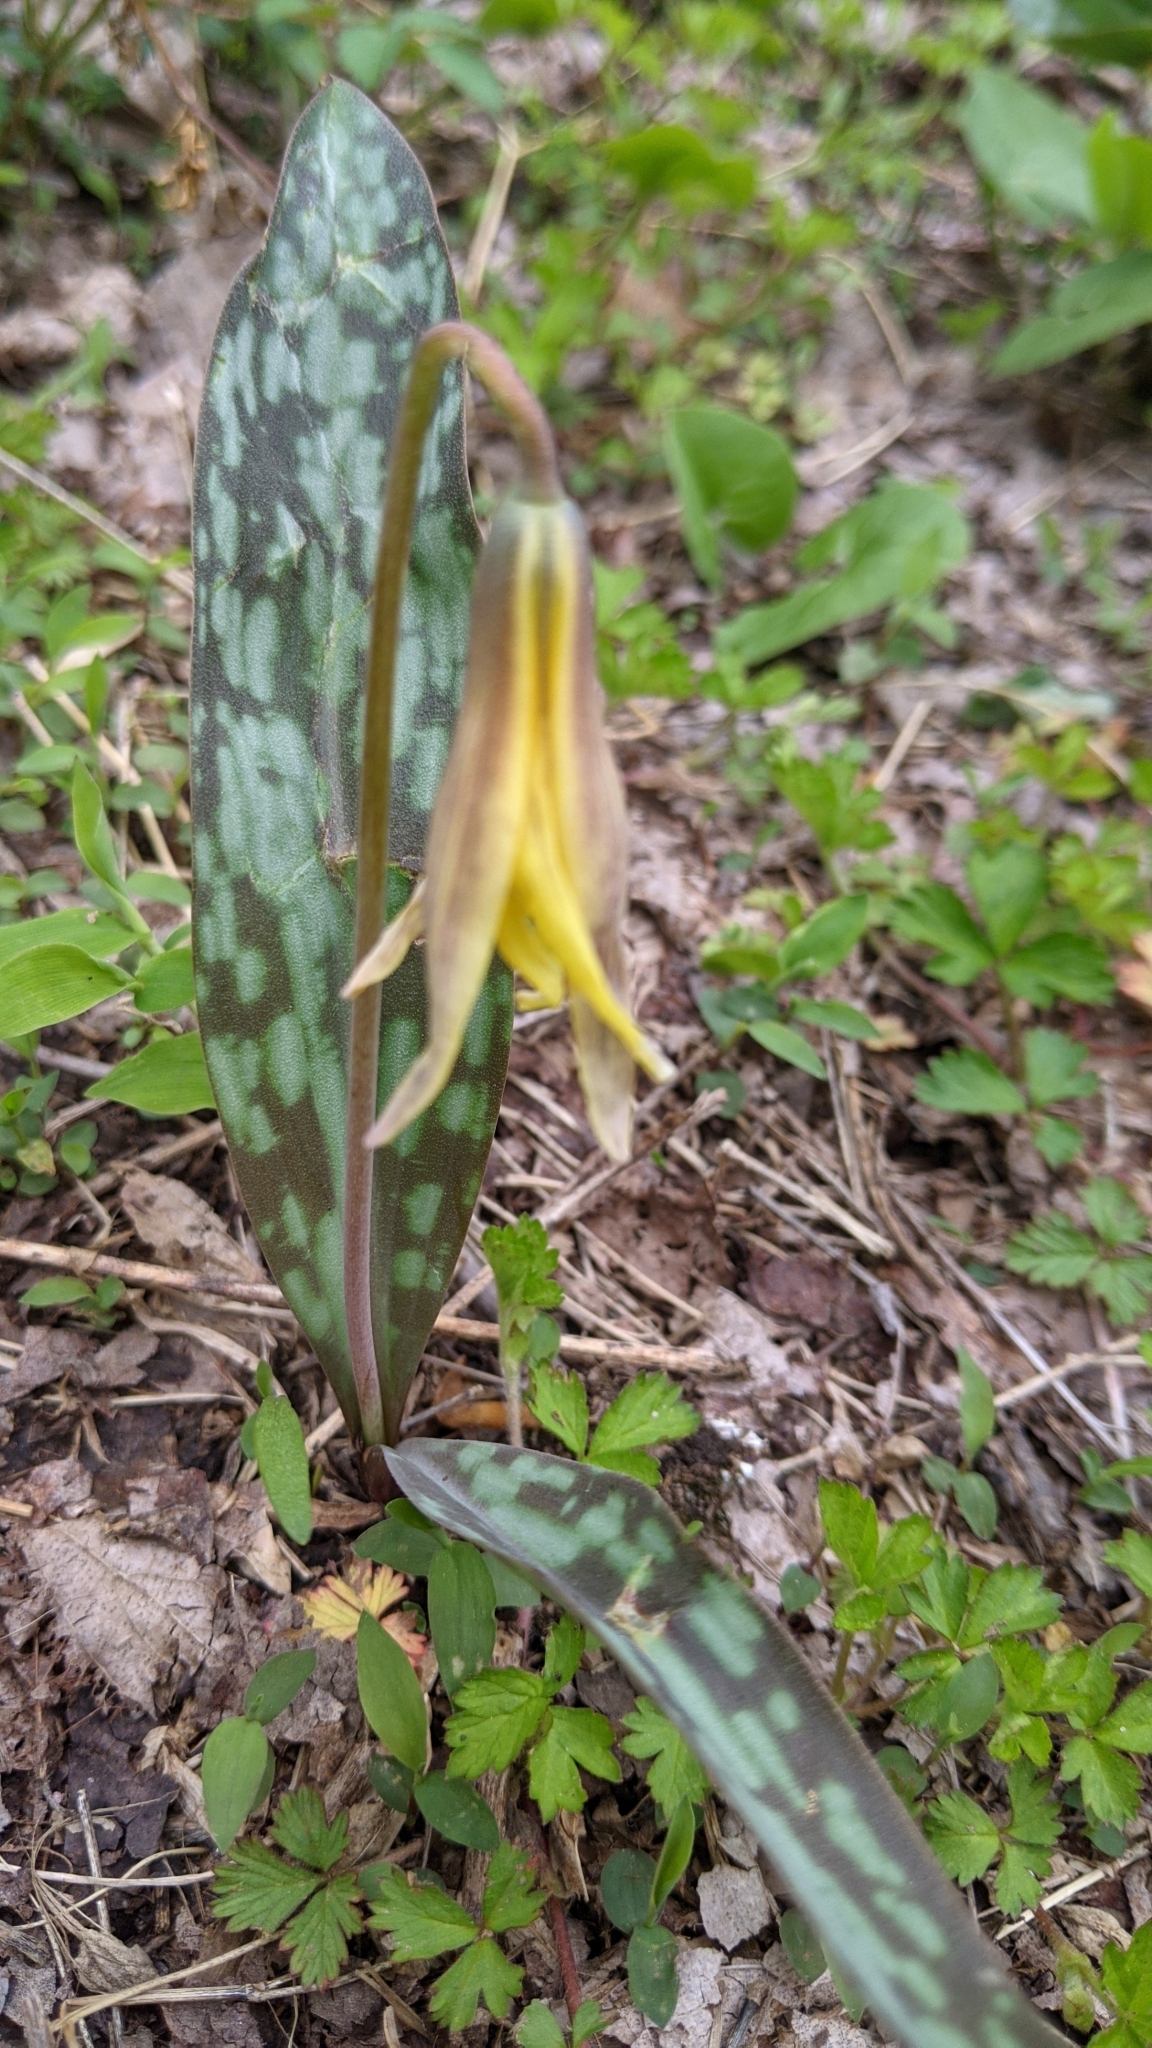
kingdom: Plantae
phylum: Tracheophyta
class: Liliopsida
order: Liliales
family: Liliaceae
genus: Erythronium
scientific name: Erythronium americanum
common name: Yellow adder's-tongue
